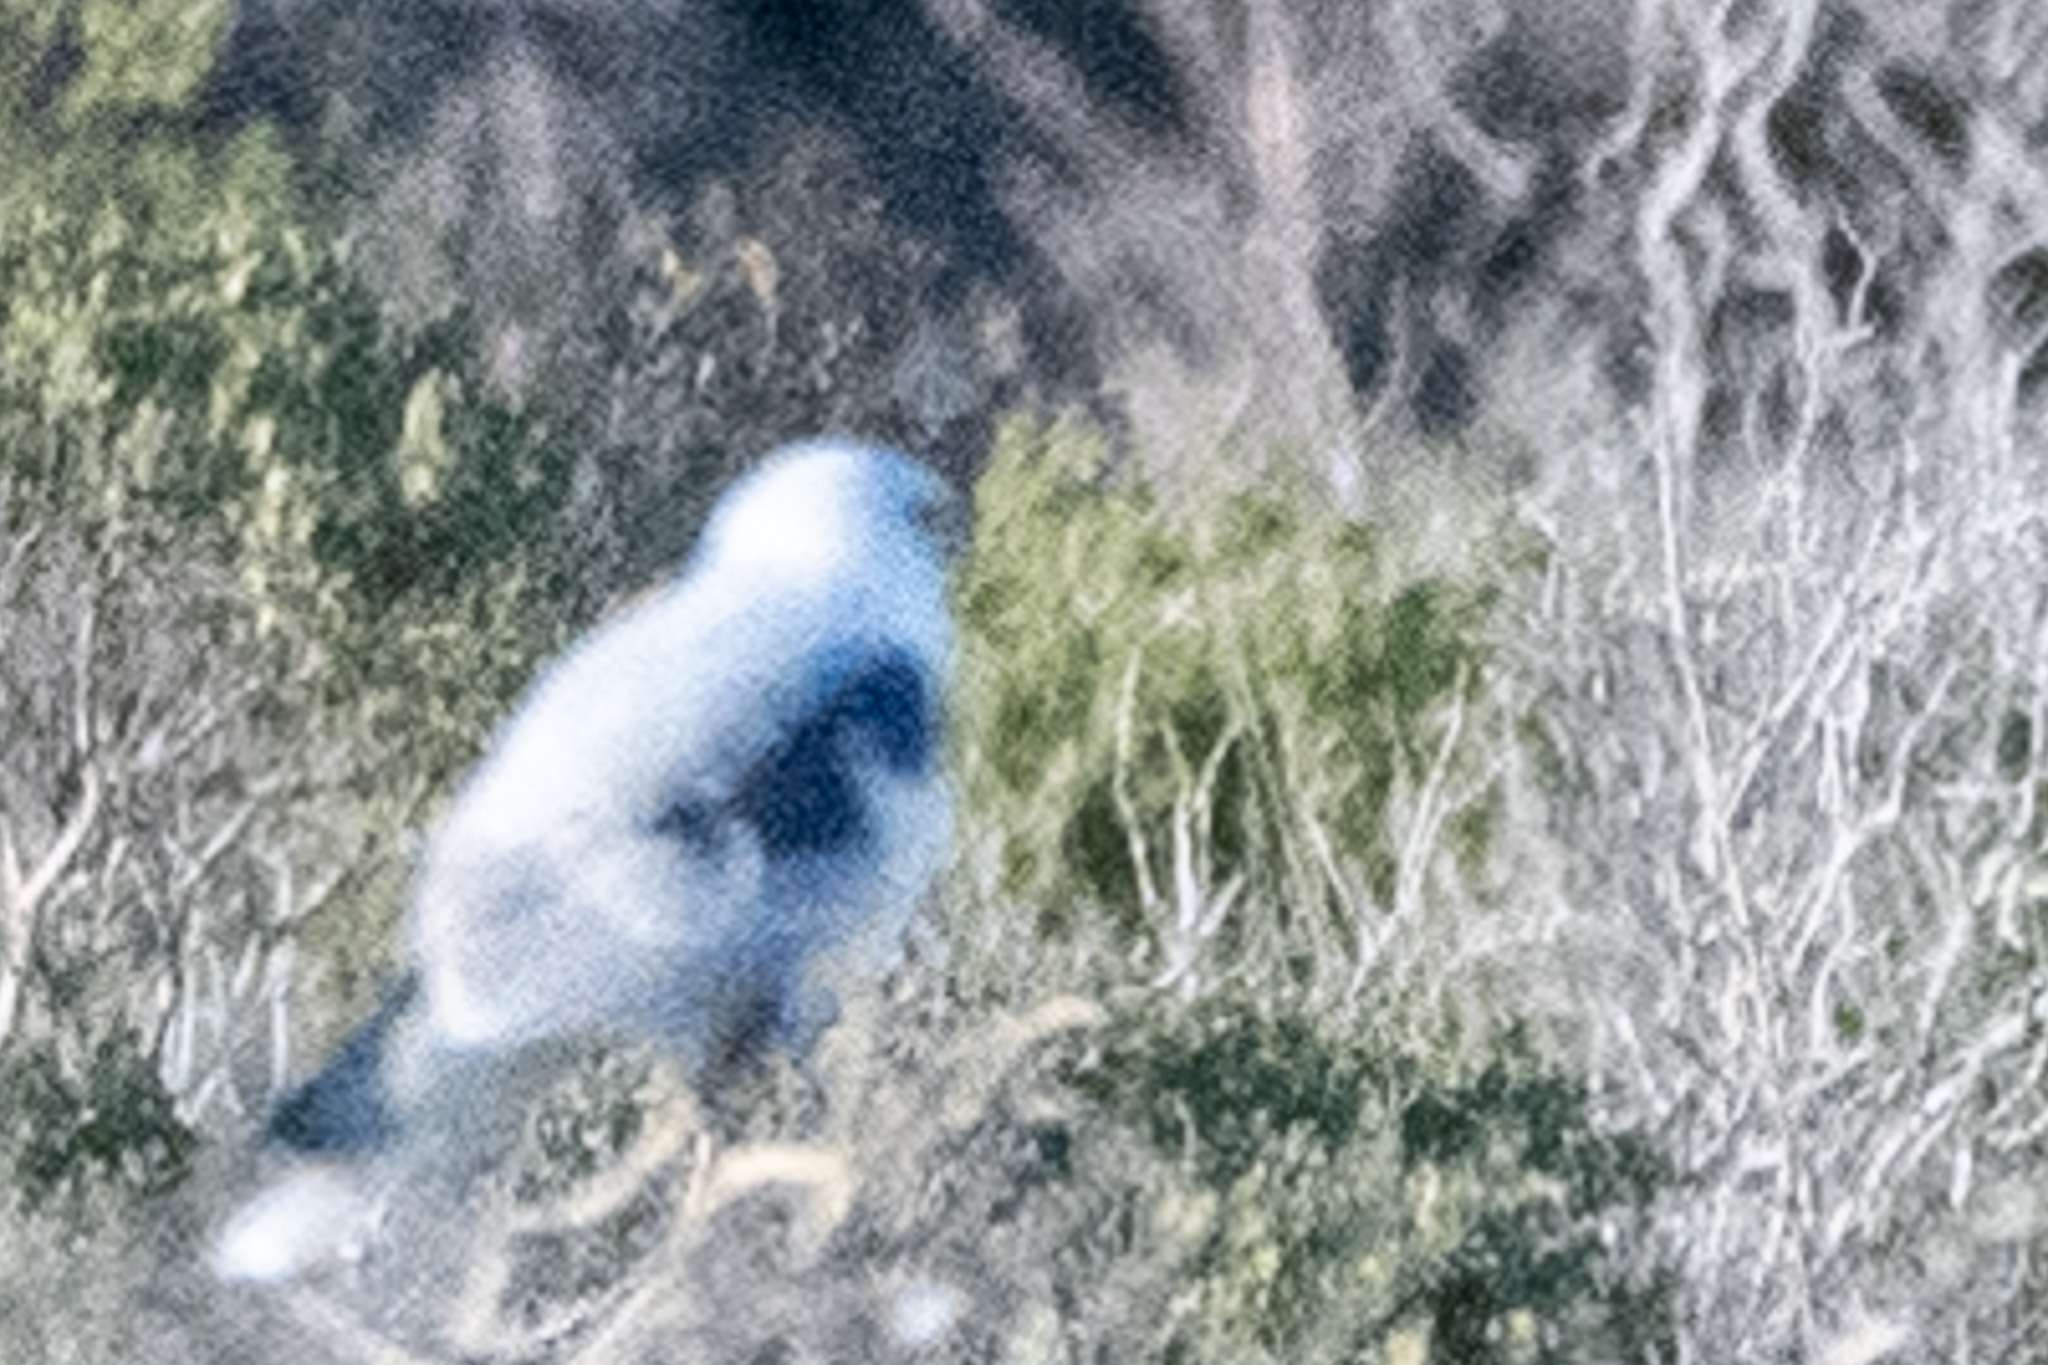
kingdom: Animalia
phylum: Chordata
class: Aves
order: Accipitriformes
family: Accipitridae
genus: Elanus
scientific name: Elanus leucurus
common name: White-tailed kite
